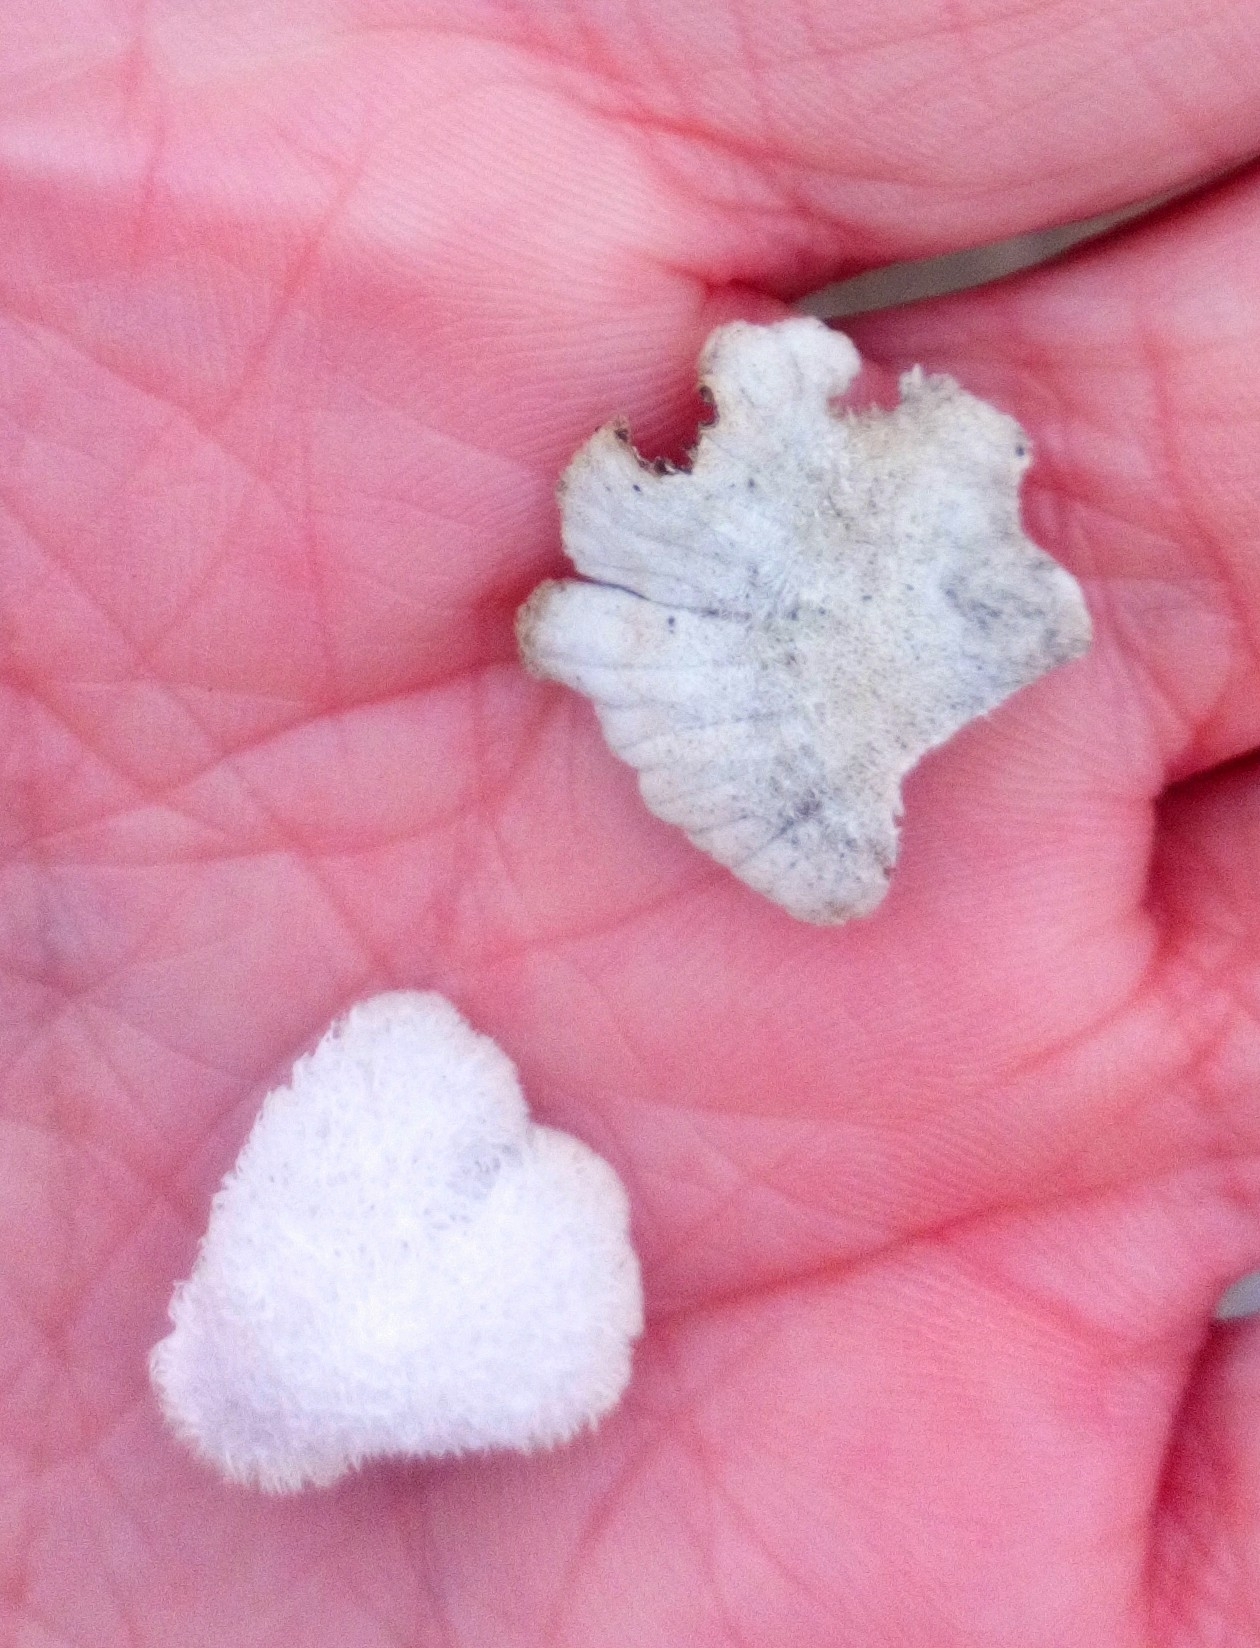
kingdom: Fungi
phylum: Basidiomycota
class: Agaricomycetes
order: Agaricales
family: Schizophyllaceae
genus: Schizophyllum
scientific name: Schizophyllum commune
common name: Common porecrust
